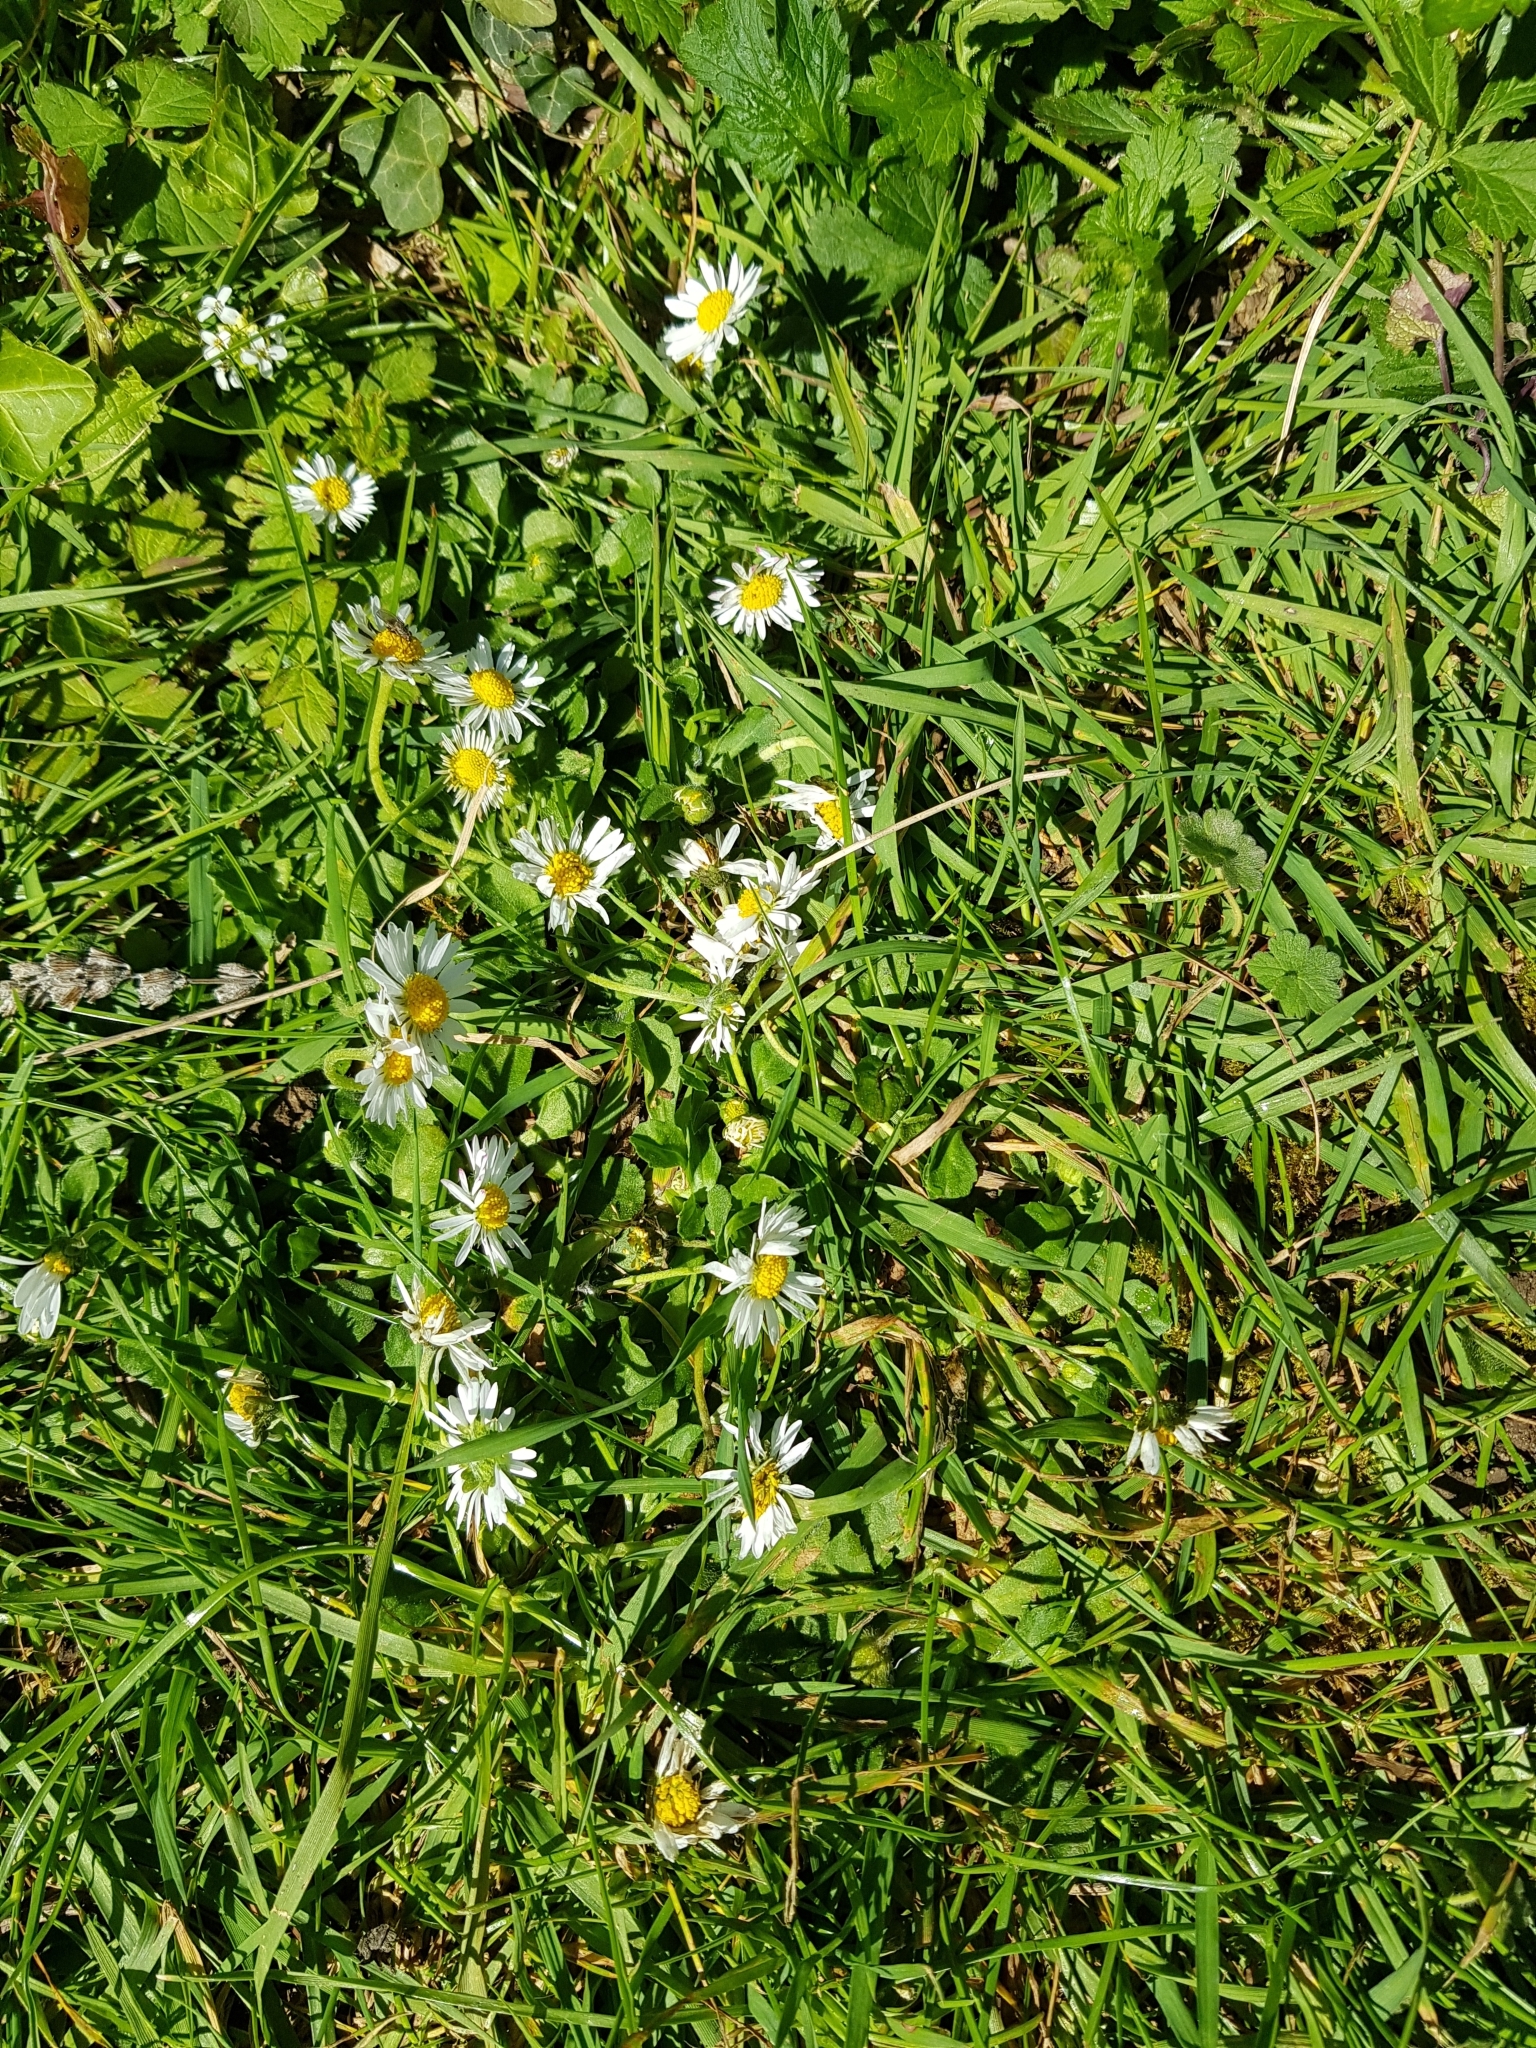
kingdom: Plantae
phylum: Tracheophyta
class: Magnoliopsida
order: Asterales
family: Asteraceae
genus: Bellis
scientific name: Bellis perennis
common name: Lawndaisy
